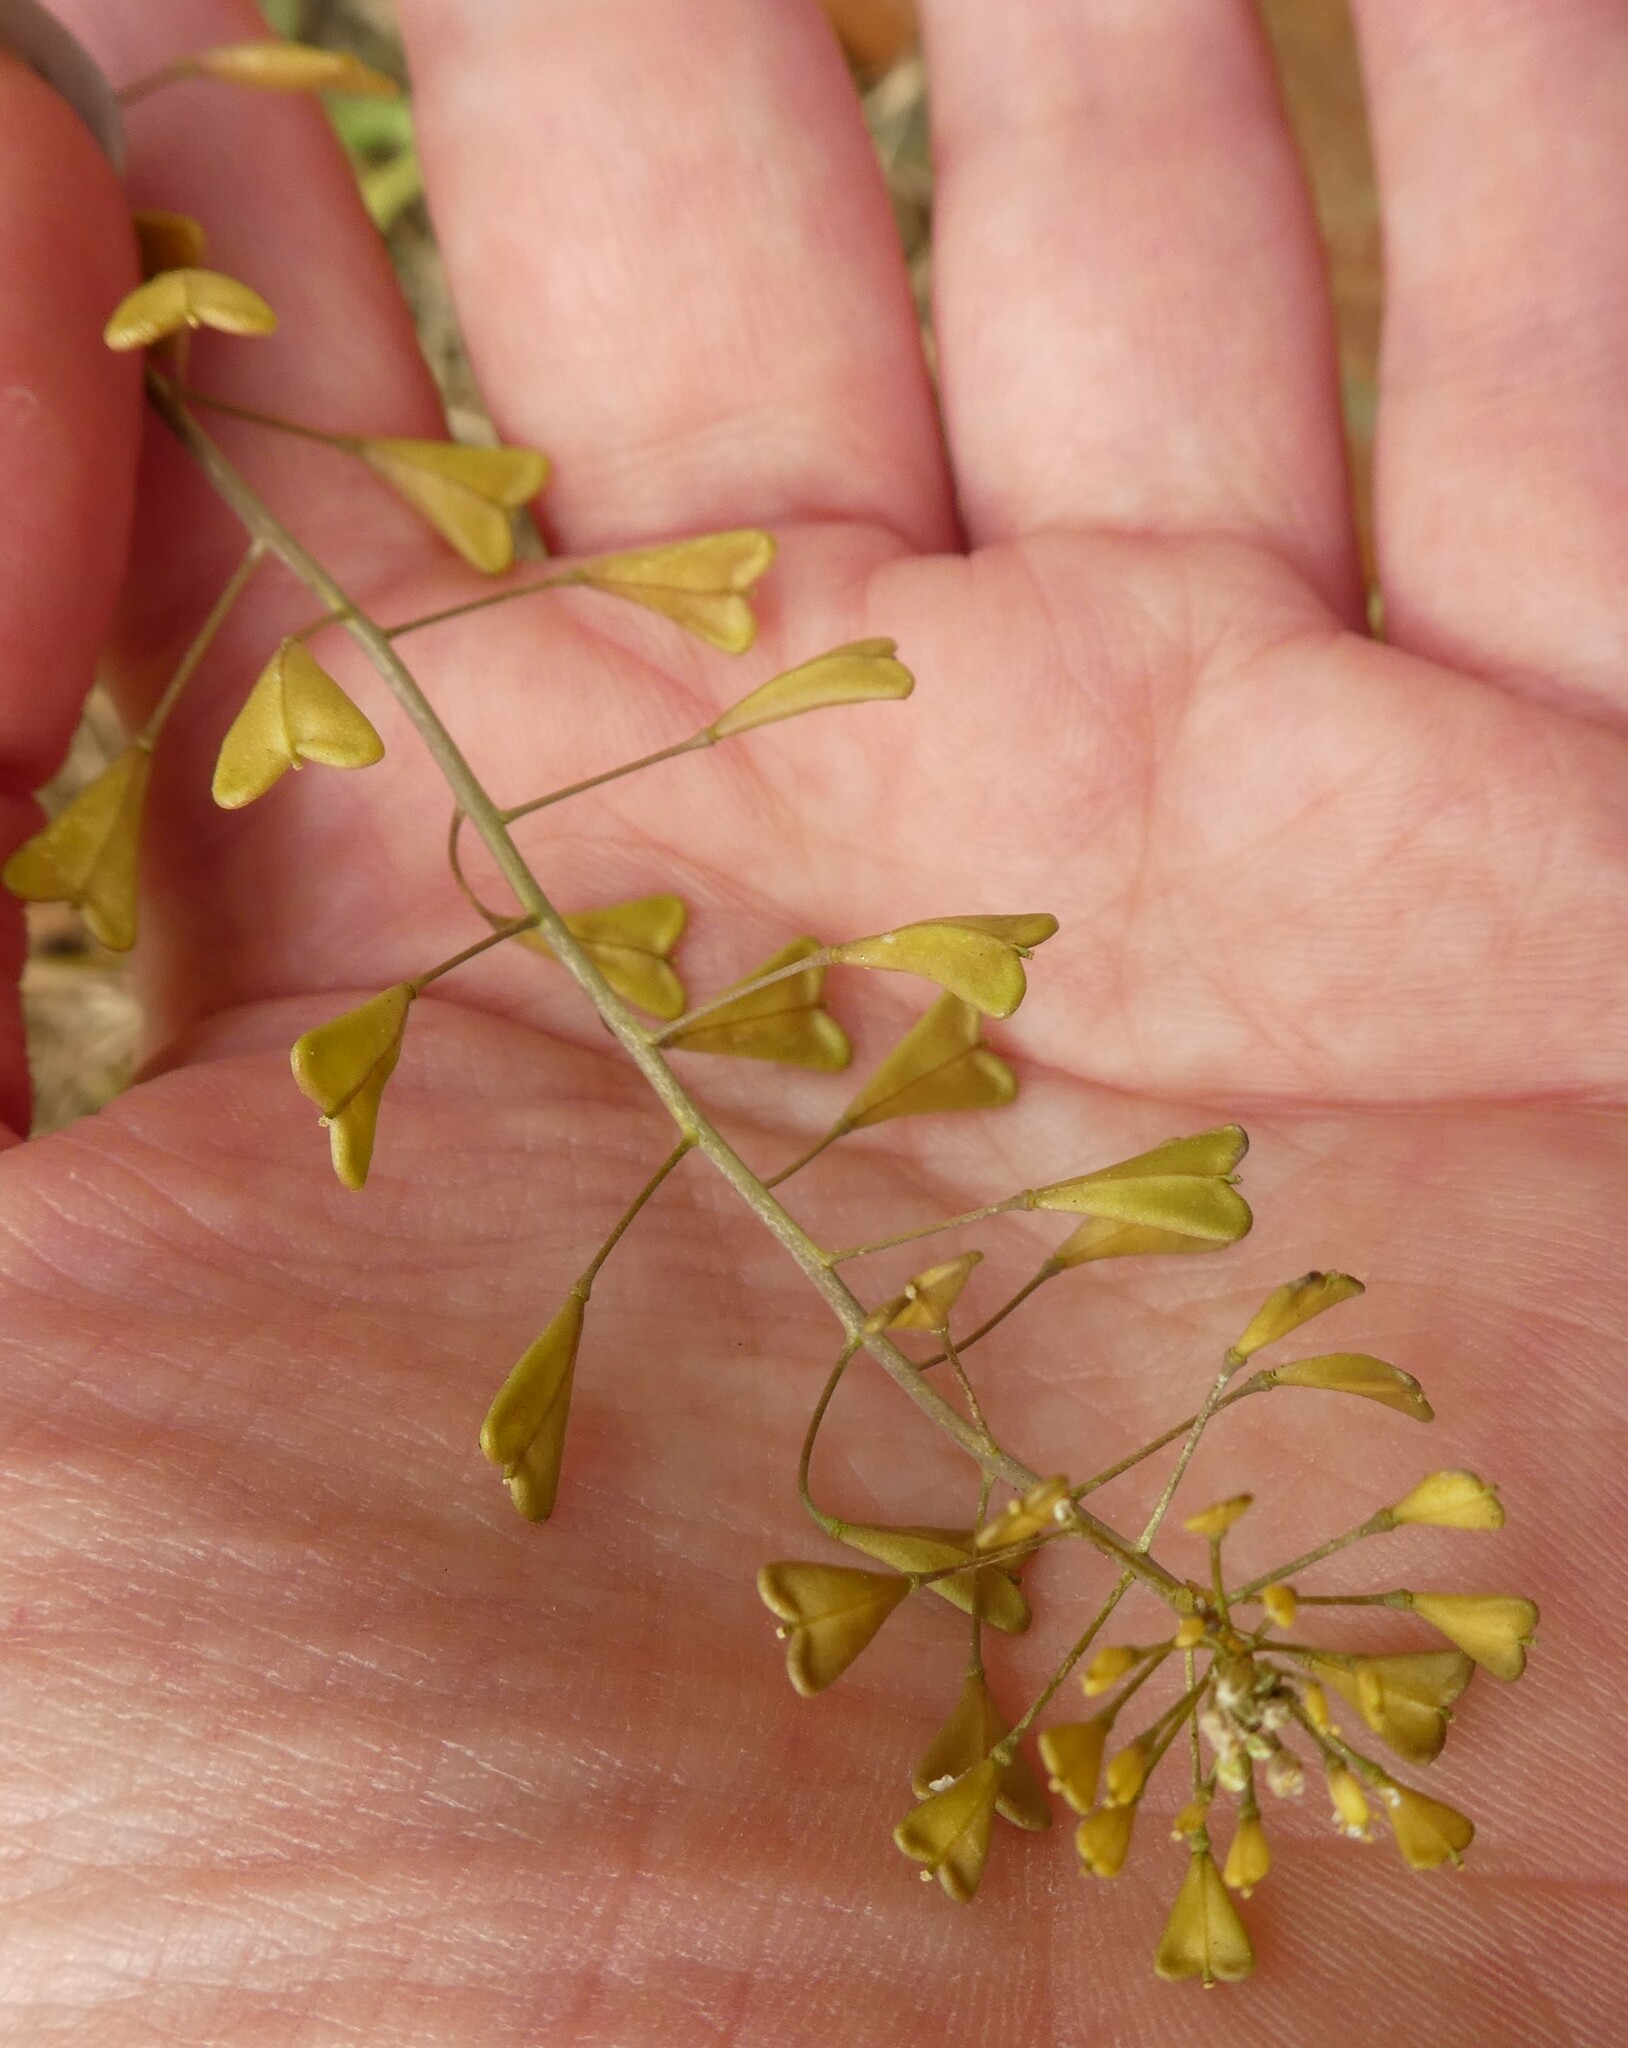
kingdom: Plantae
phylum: Tracheophyta
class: Magnoliopsida
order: Brassicales
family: Brassicaceae
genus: Capsella
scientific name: Capsella bursa-pastoris
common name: Shepherd's purse
